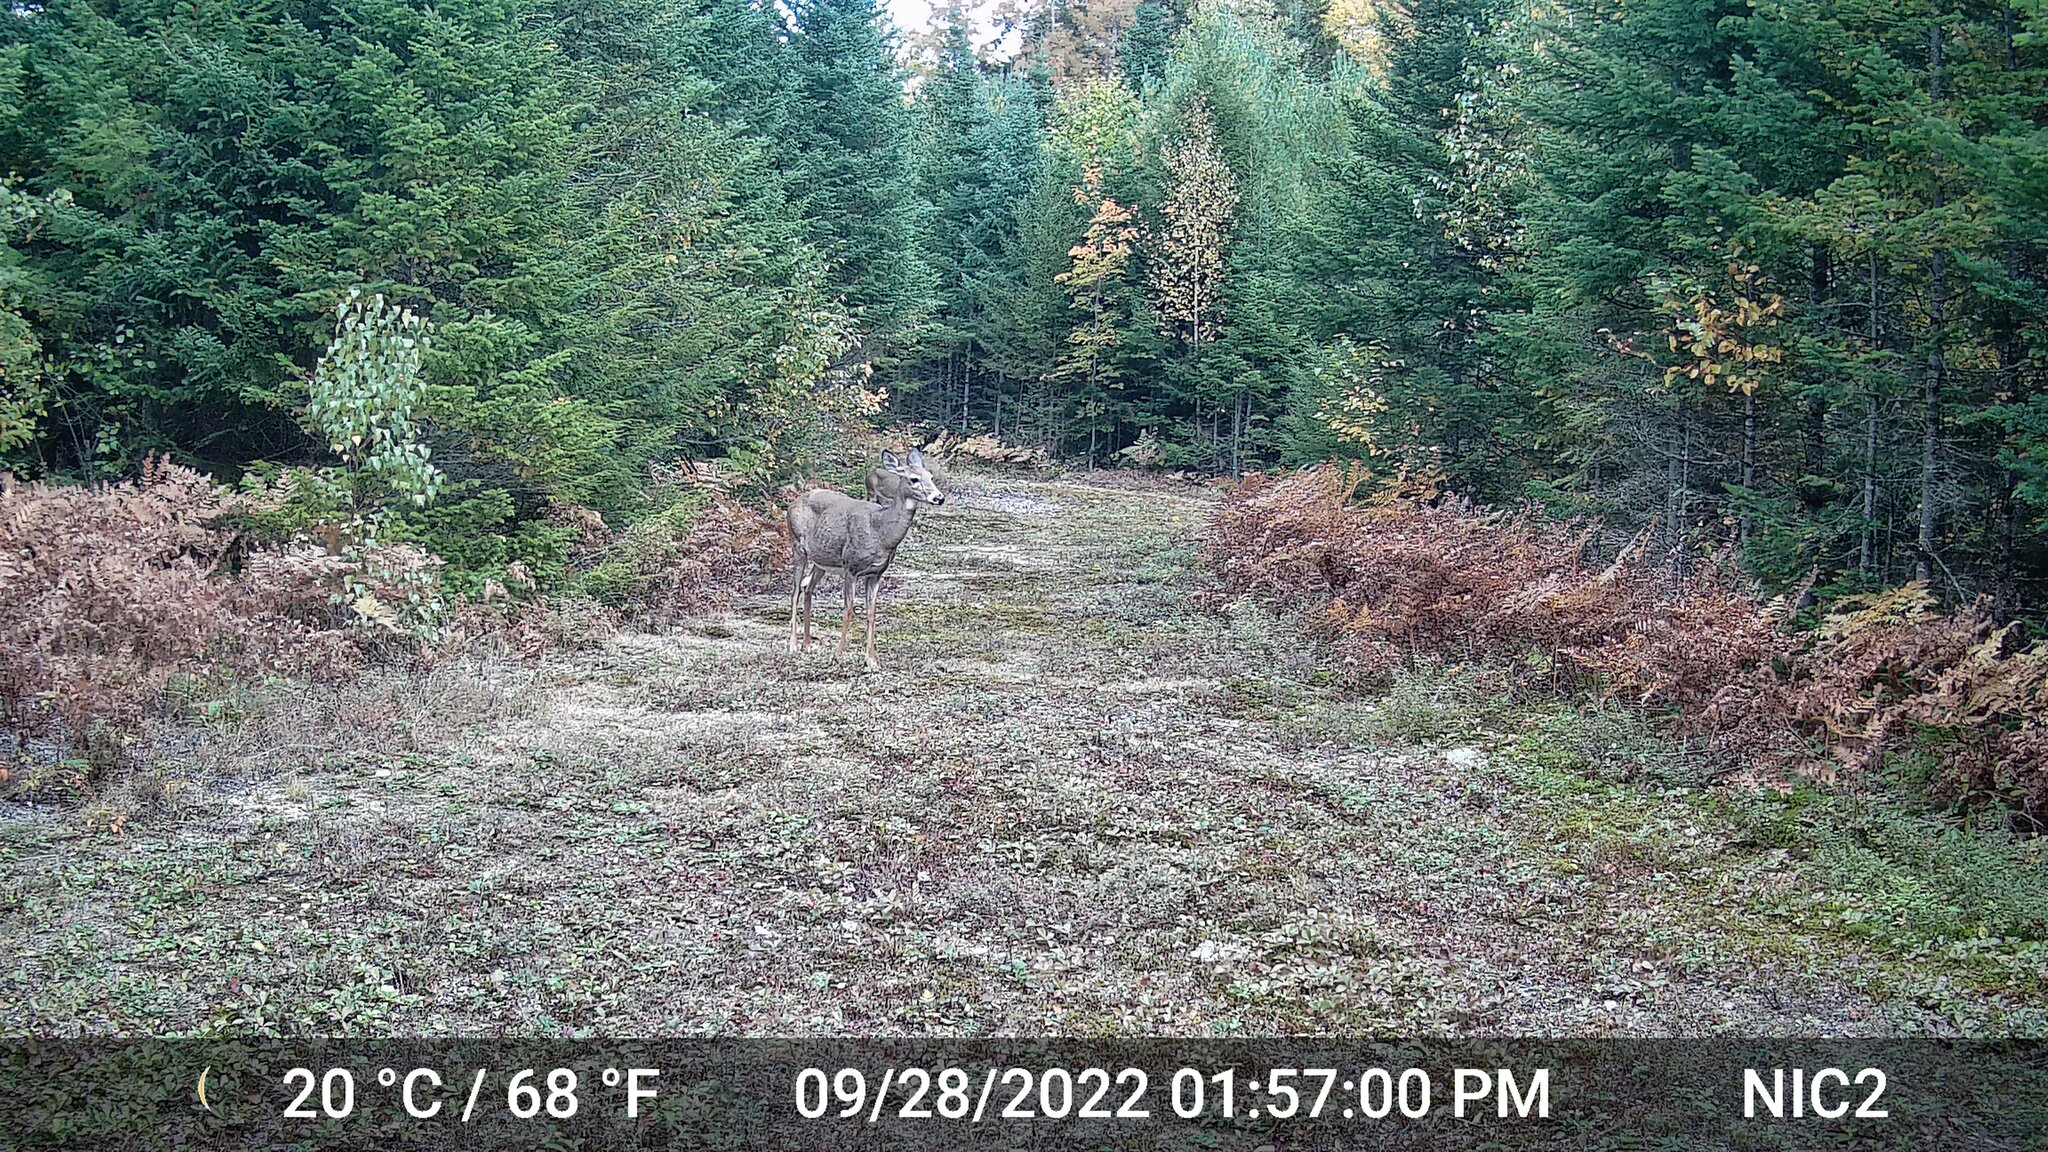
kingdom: Animalia
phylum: Chordata
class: Mammalia
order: Artiodactyla
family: Cervidae
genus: Odocoileus
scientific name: Odocoileus virginianus
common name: White-tailed deer
